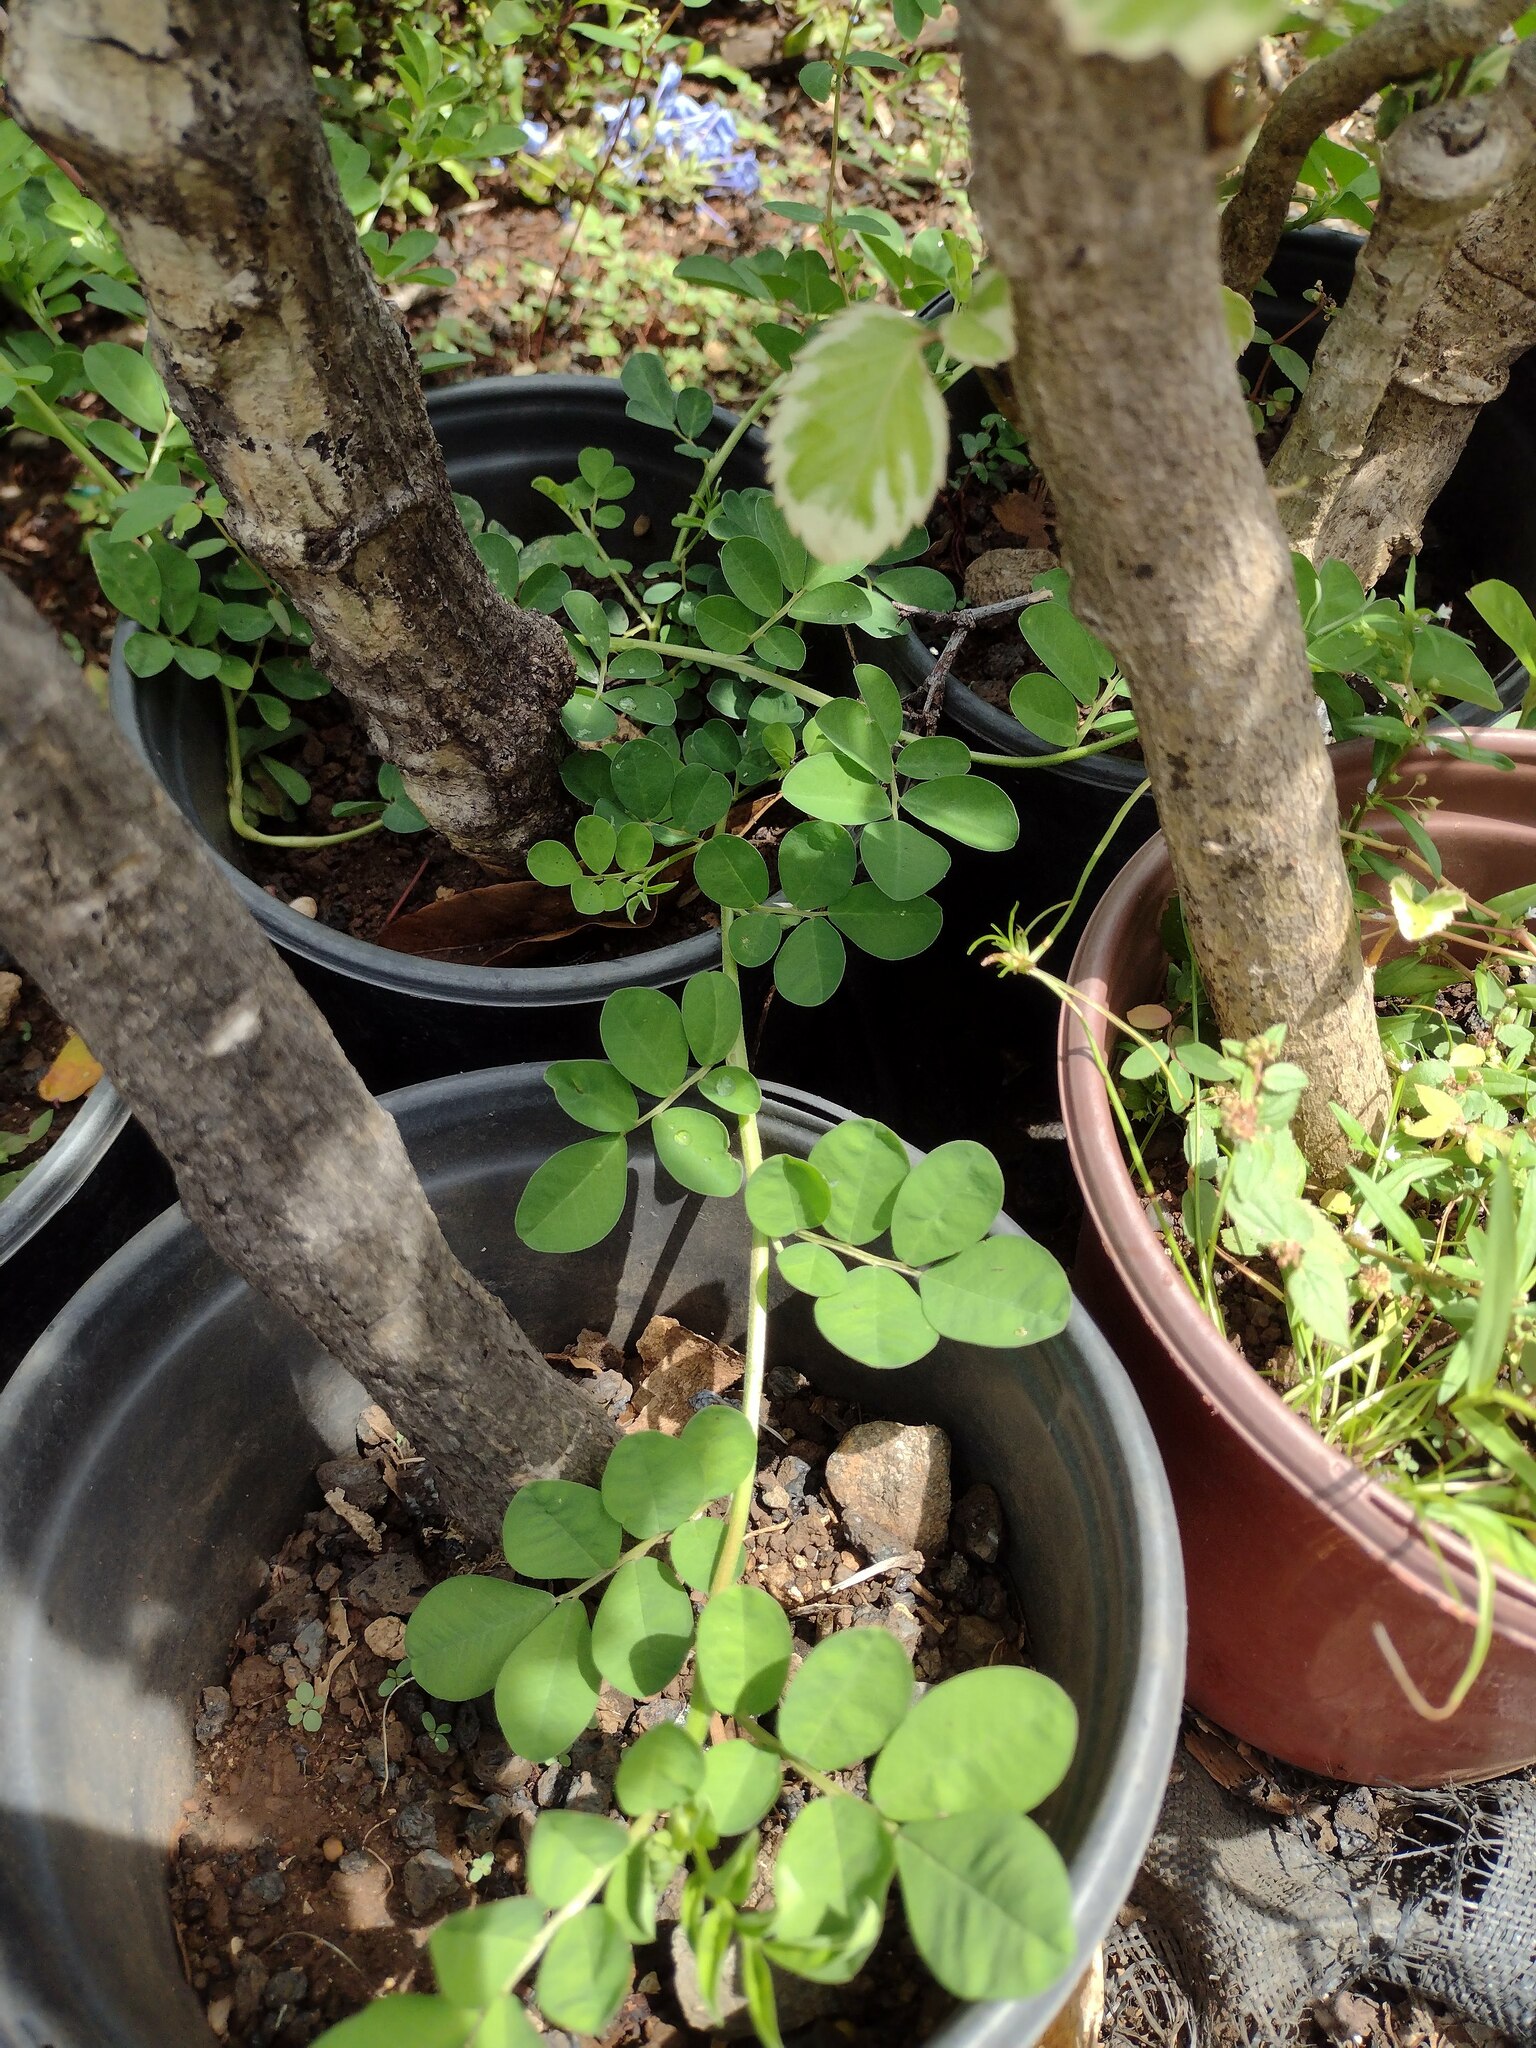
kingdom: Plantae
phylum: Tracheophyta
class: Magnoliopsida
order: Fabales
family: Fabaceae
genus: Indigofera
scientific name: Indigofera spicata
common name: Creeping indigo
